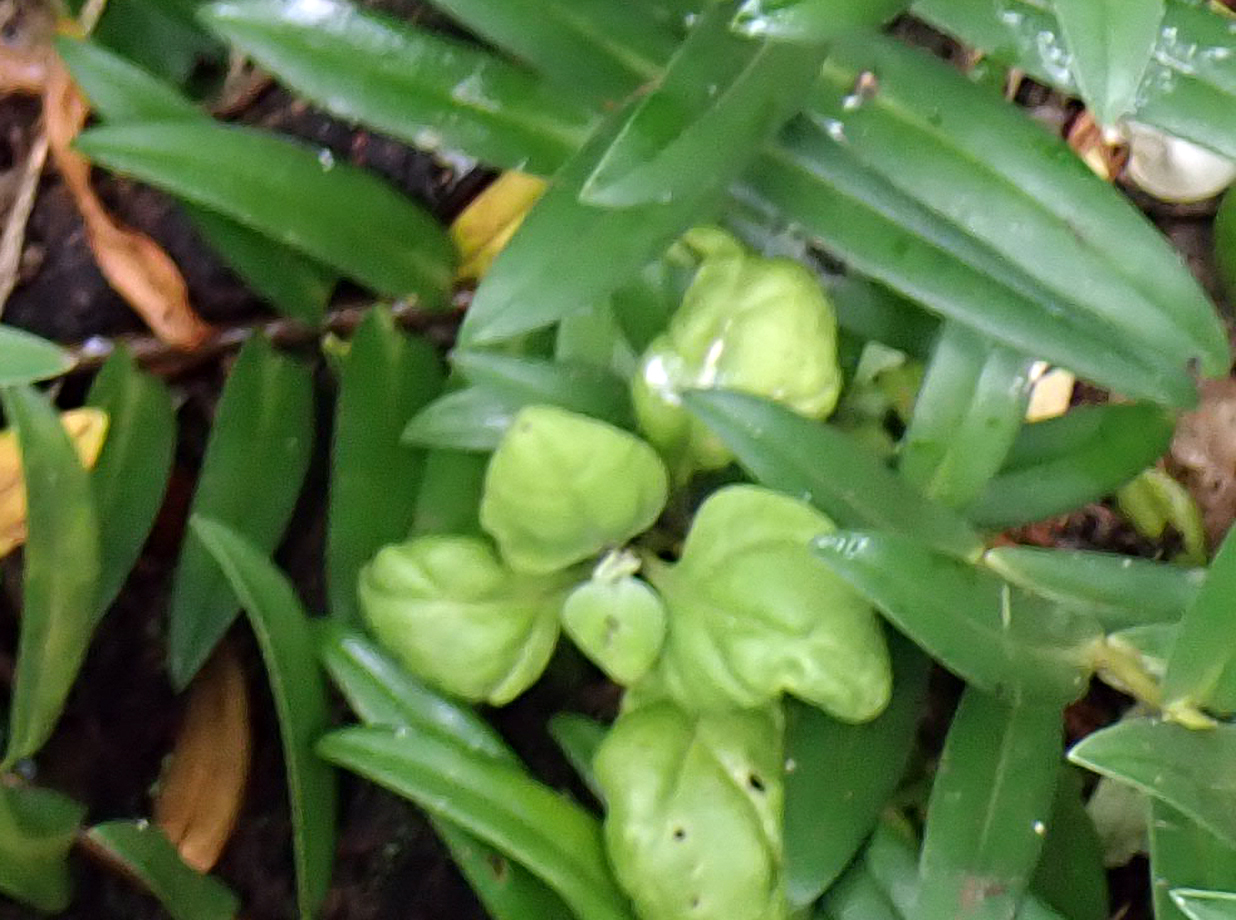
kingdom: Plantae
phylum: Tracheophyta
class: Magnoliopsida
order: Caryophyllales
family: Aizoaceae
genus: Tetragonia
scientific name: Tetragonia implexicoma
